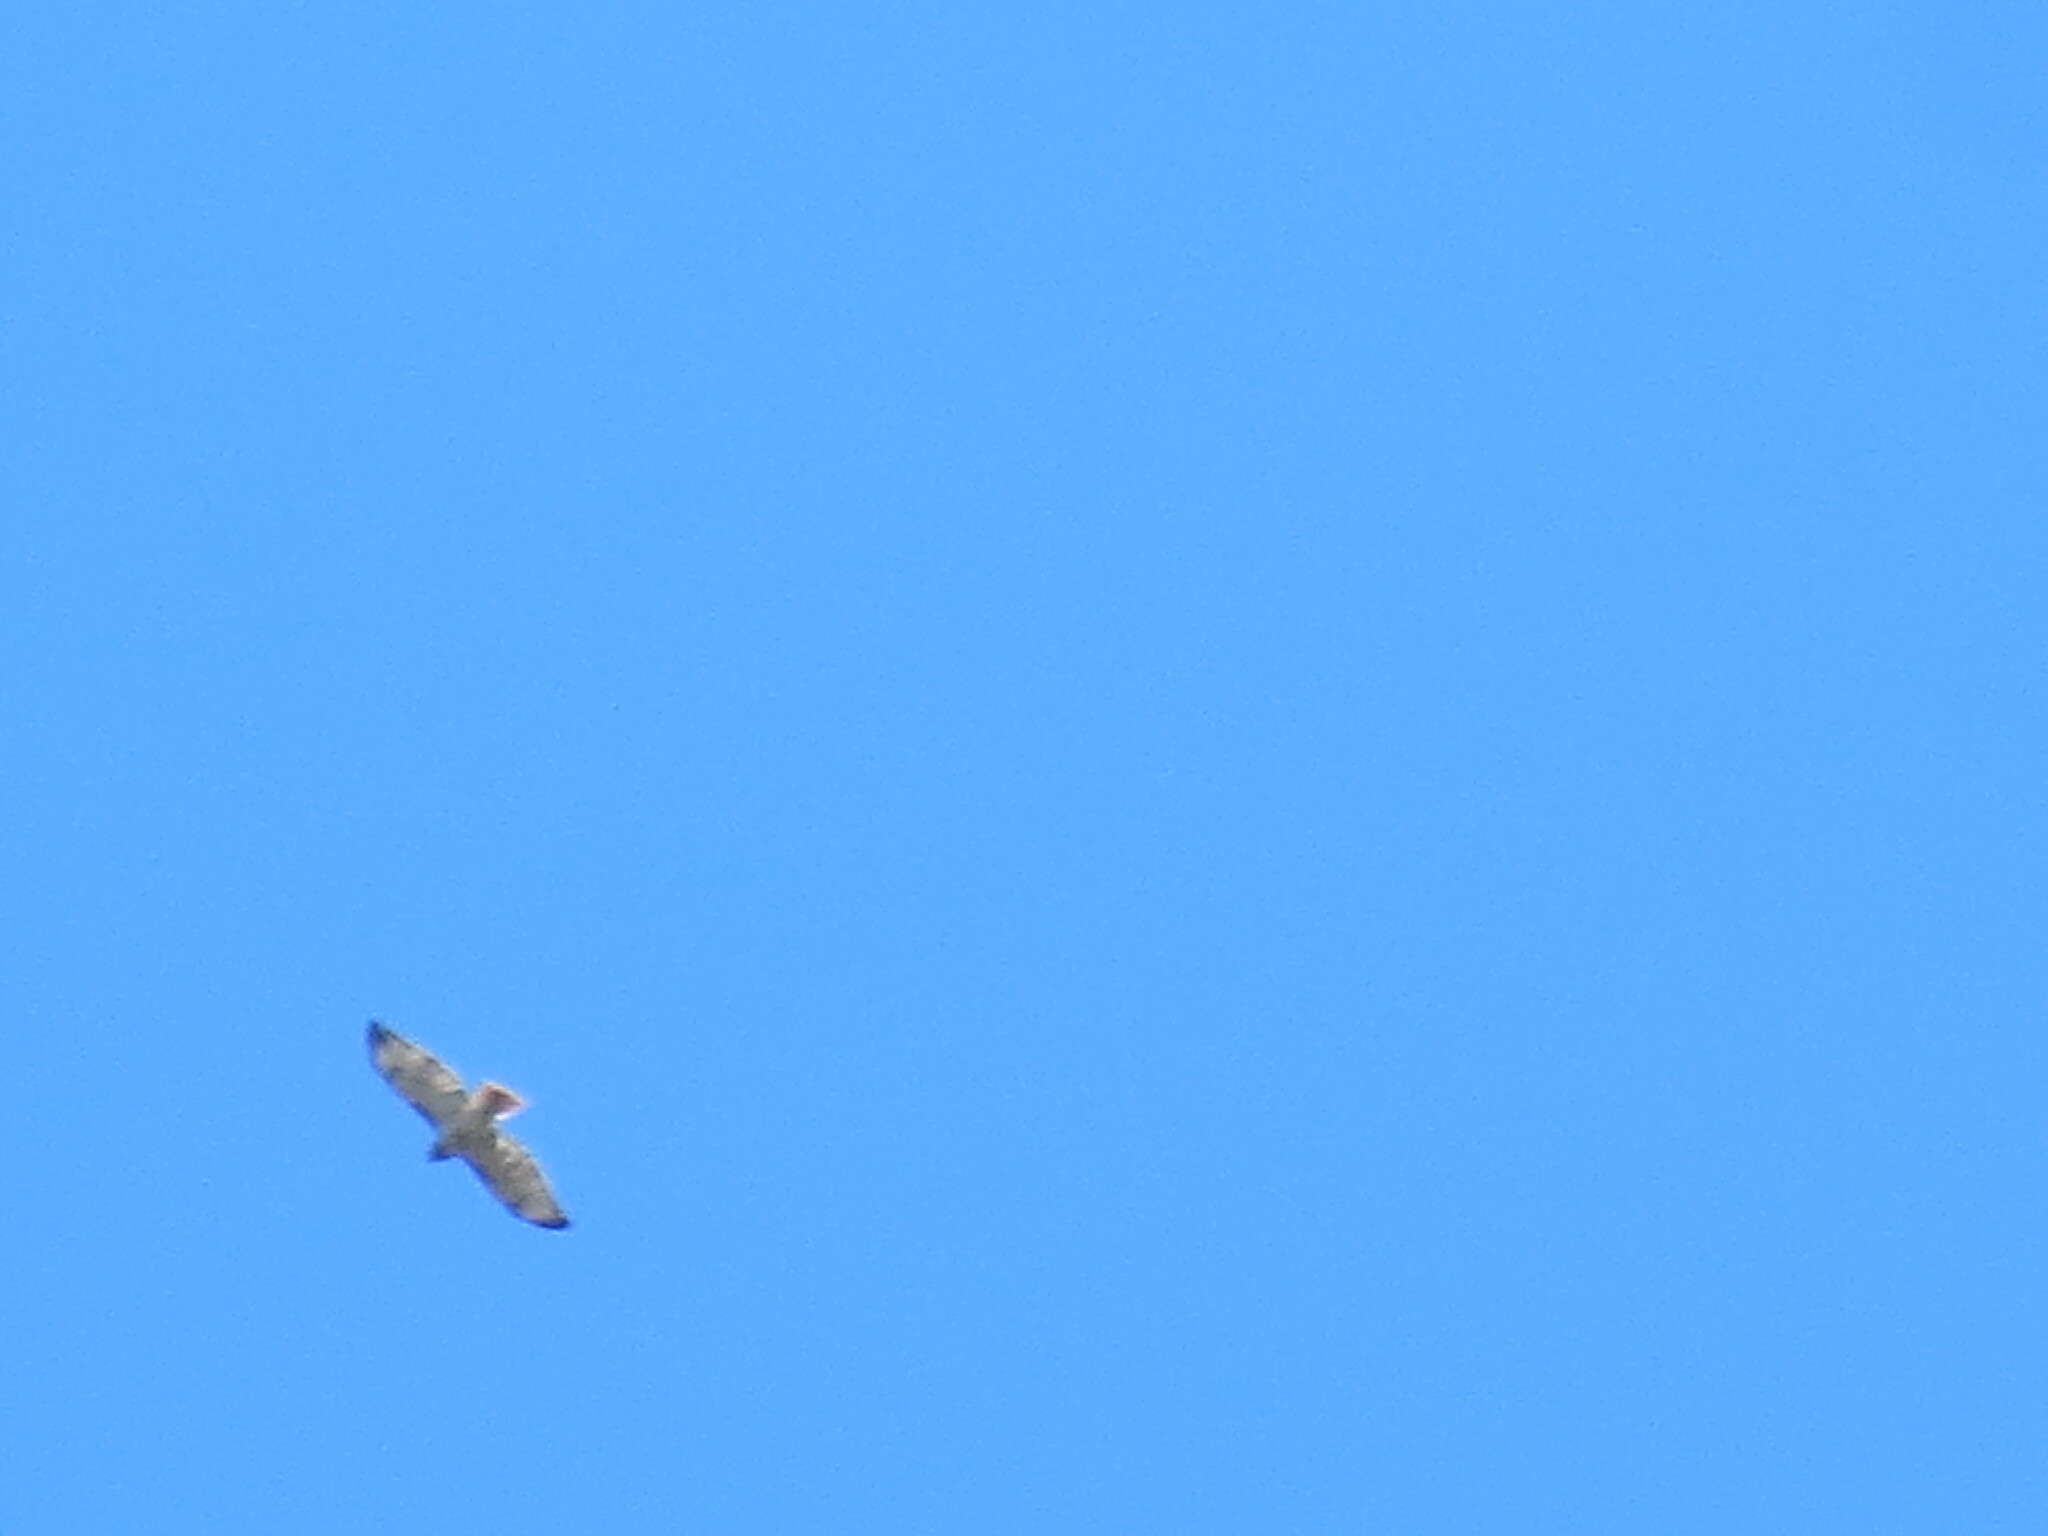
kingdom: Animalia
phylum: Chordata
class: Aves
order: Accipitriformes
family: Accipitridae
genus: Buteo
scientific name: Buteo jamaicensis
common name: Red-tailed hawk
